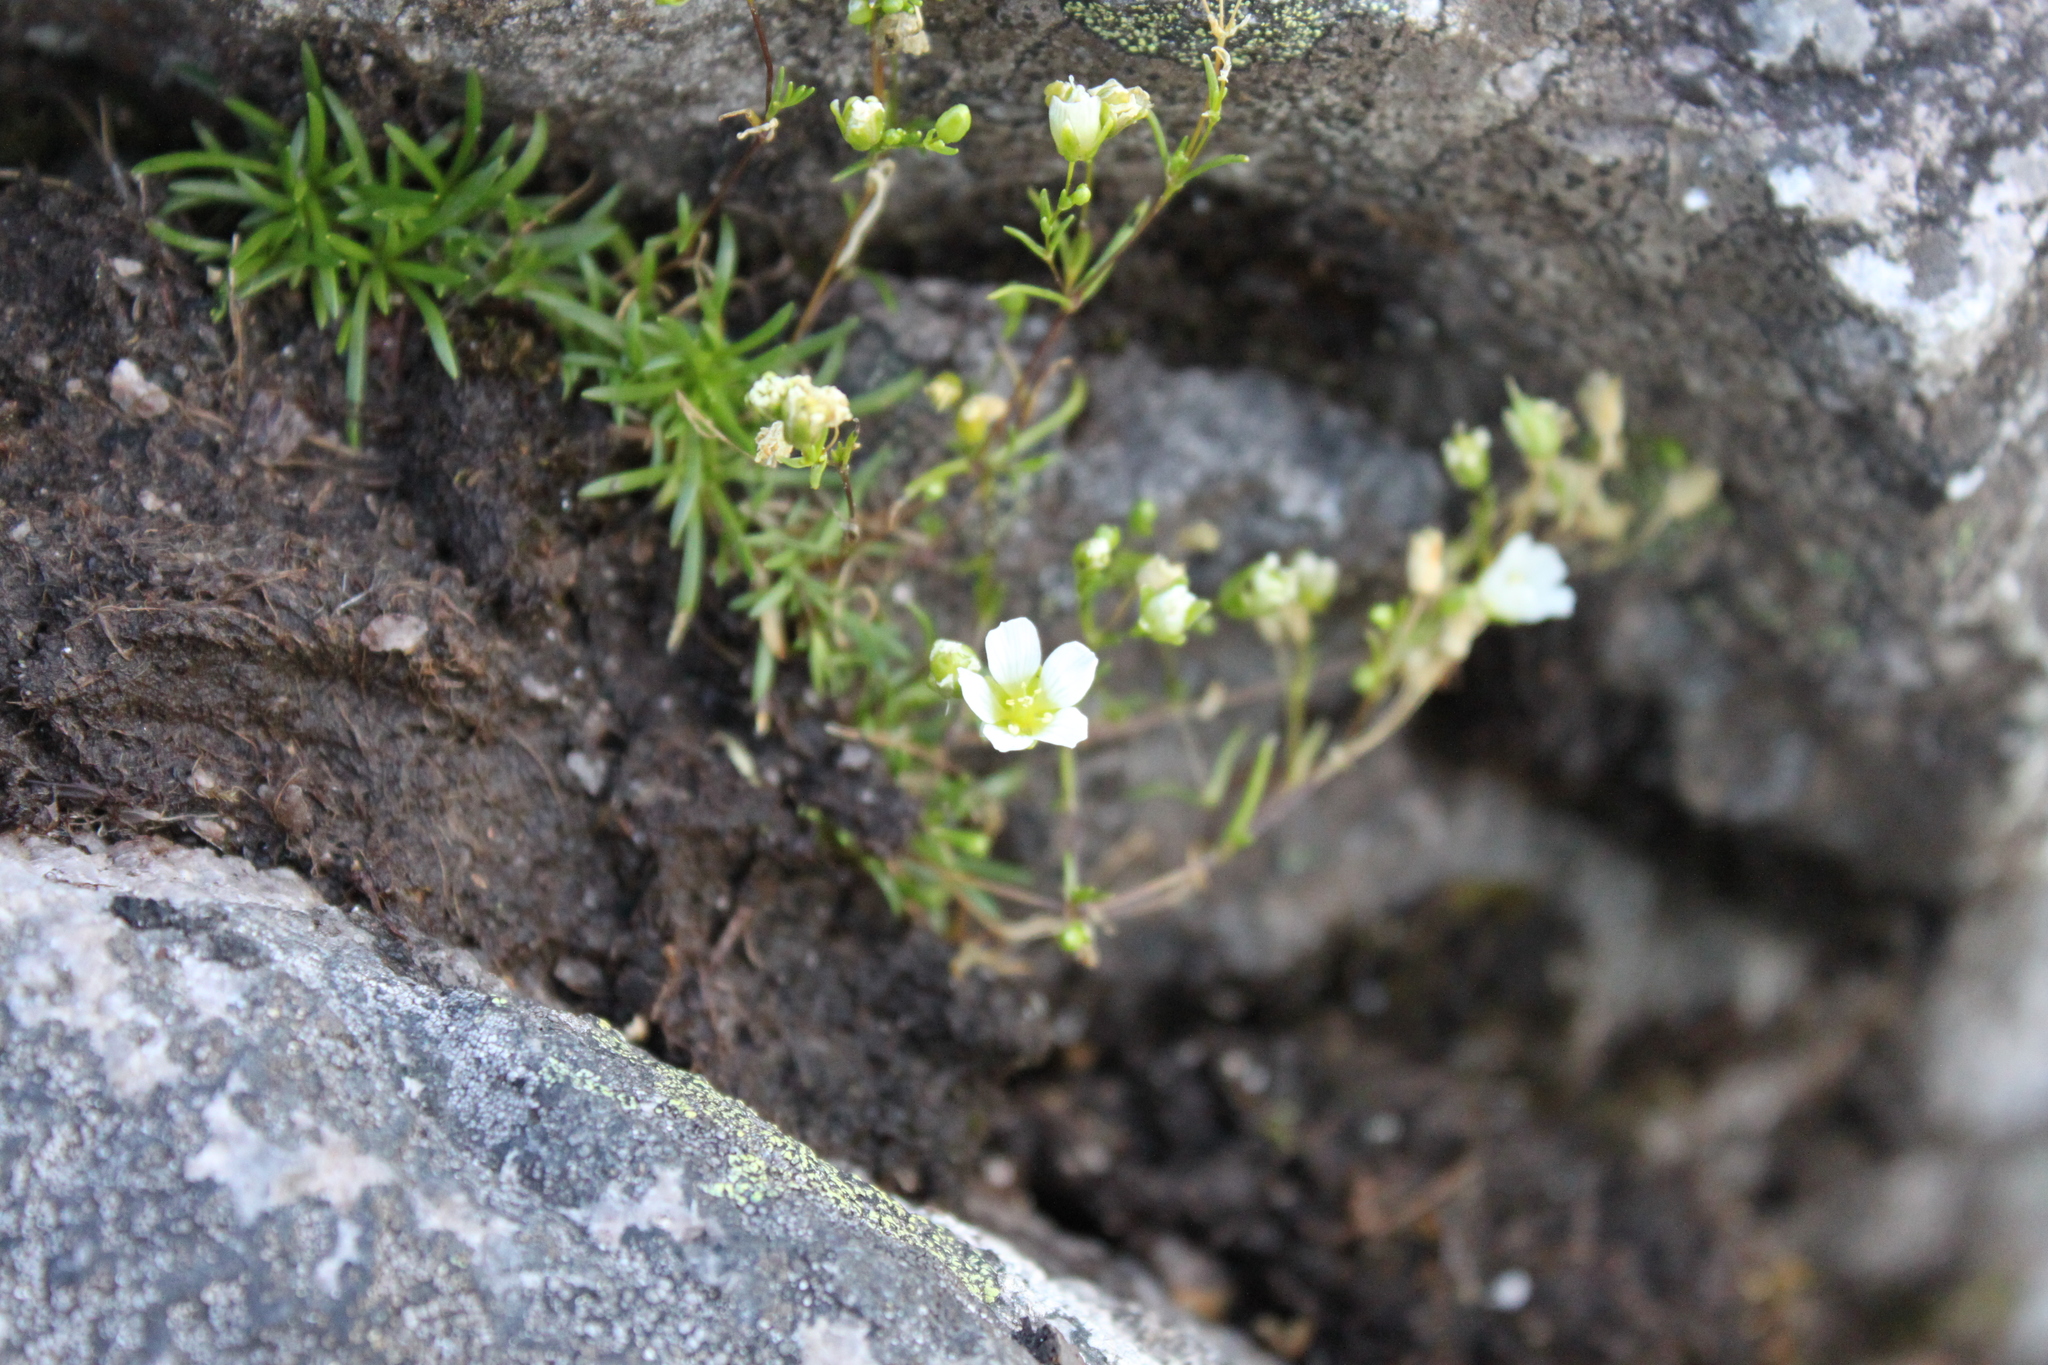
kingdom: Plantae
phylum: Tracheophyta
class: Magnoliopsida
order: Caryophyllales
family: Caryophyllaceae
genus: Geocarpon
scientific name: Geocarpon groenlandicum
